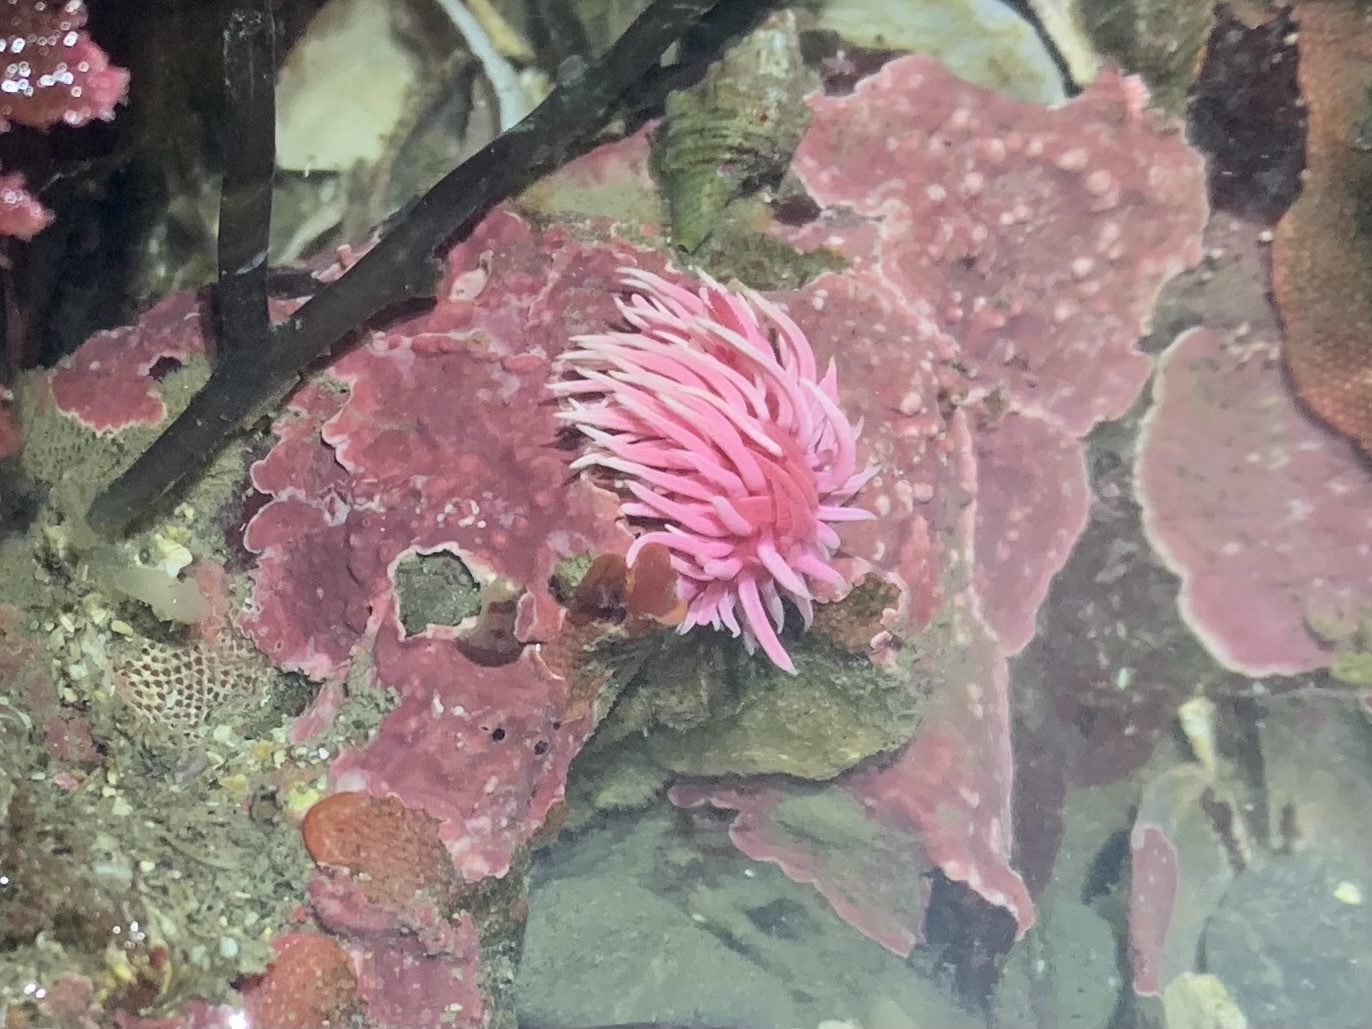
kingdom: Animalia
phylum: Mollusca
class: Gastropoda
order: Nudibranchia
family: Goniodorididae
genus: Okenia
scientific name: Okenia
